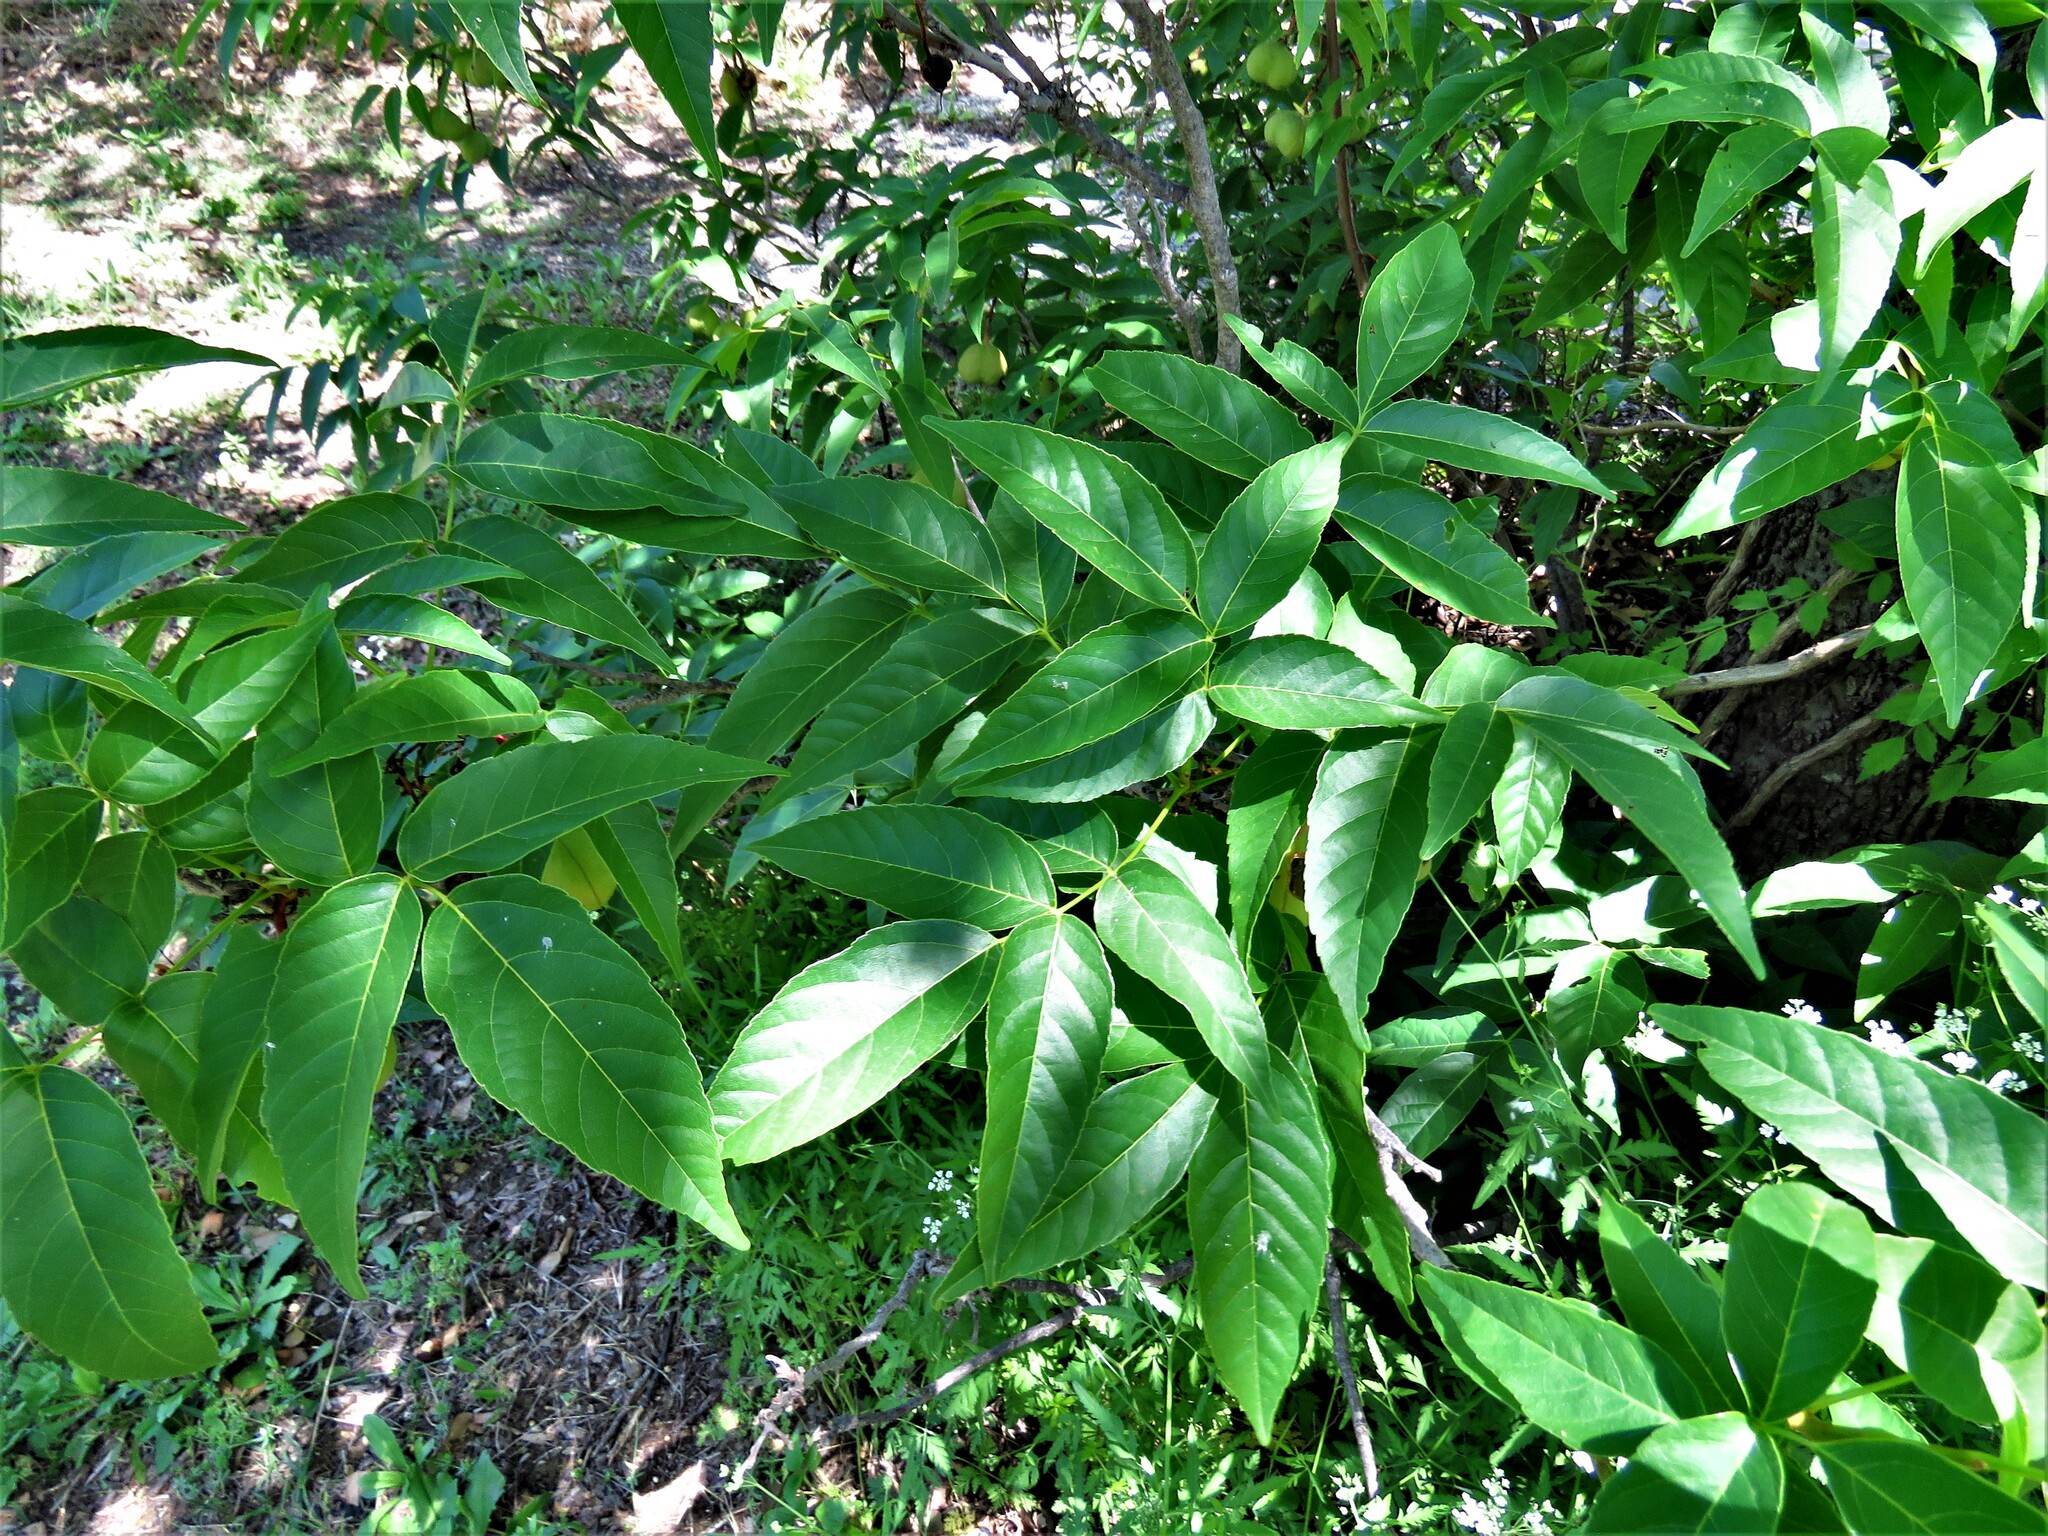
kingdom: Plantae
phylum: Tracheophyta
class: Magnoliopsida
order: Sapindales
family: Sapindaceae
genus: Ungnadia
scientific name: Ungnadia speciosa
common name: Texas-buckeye
